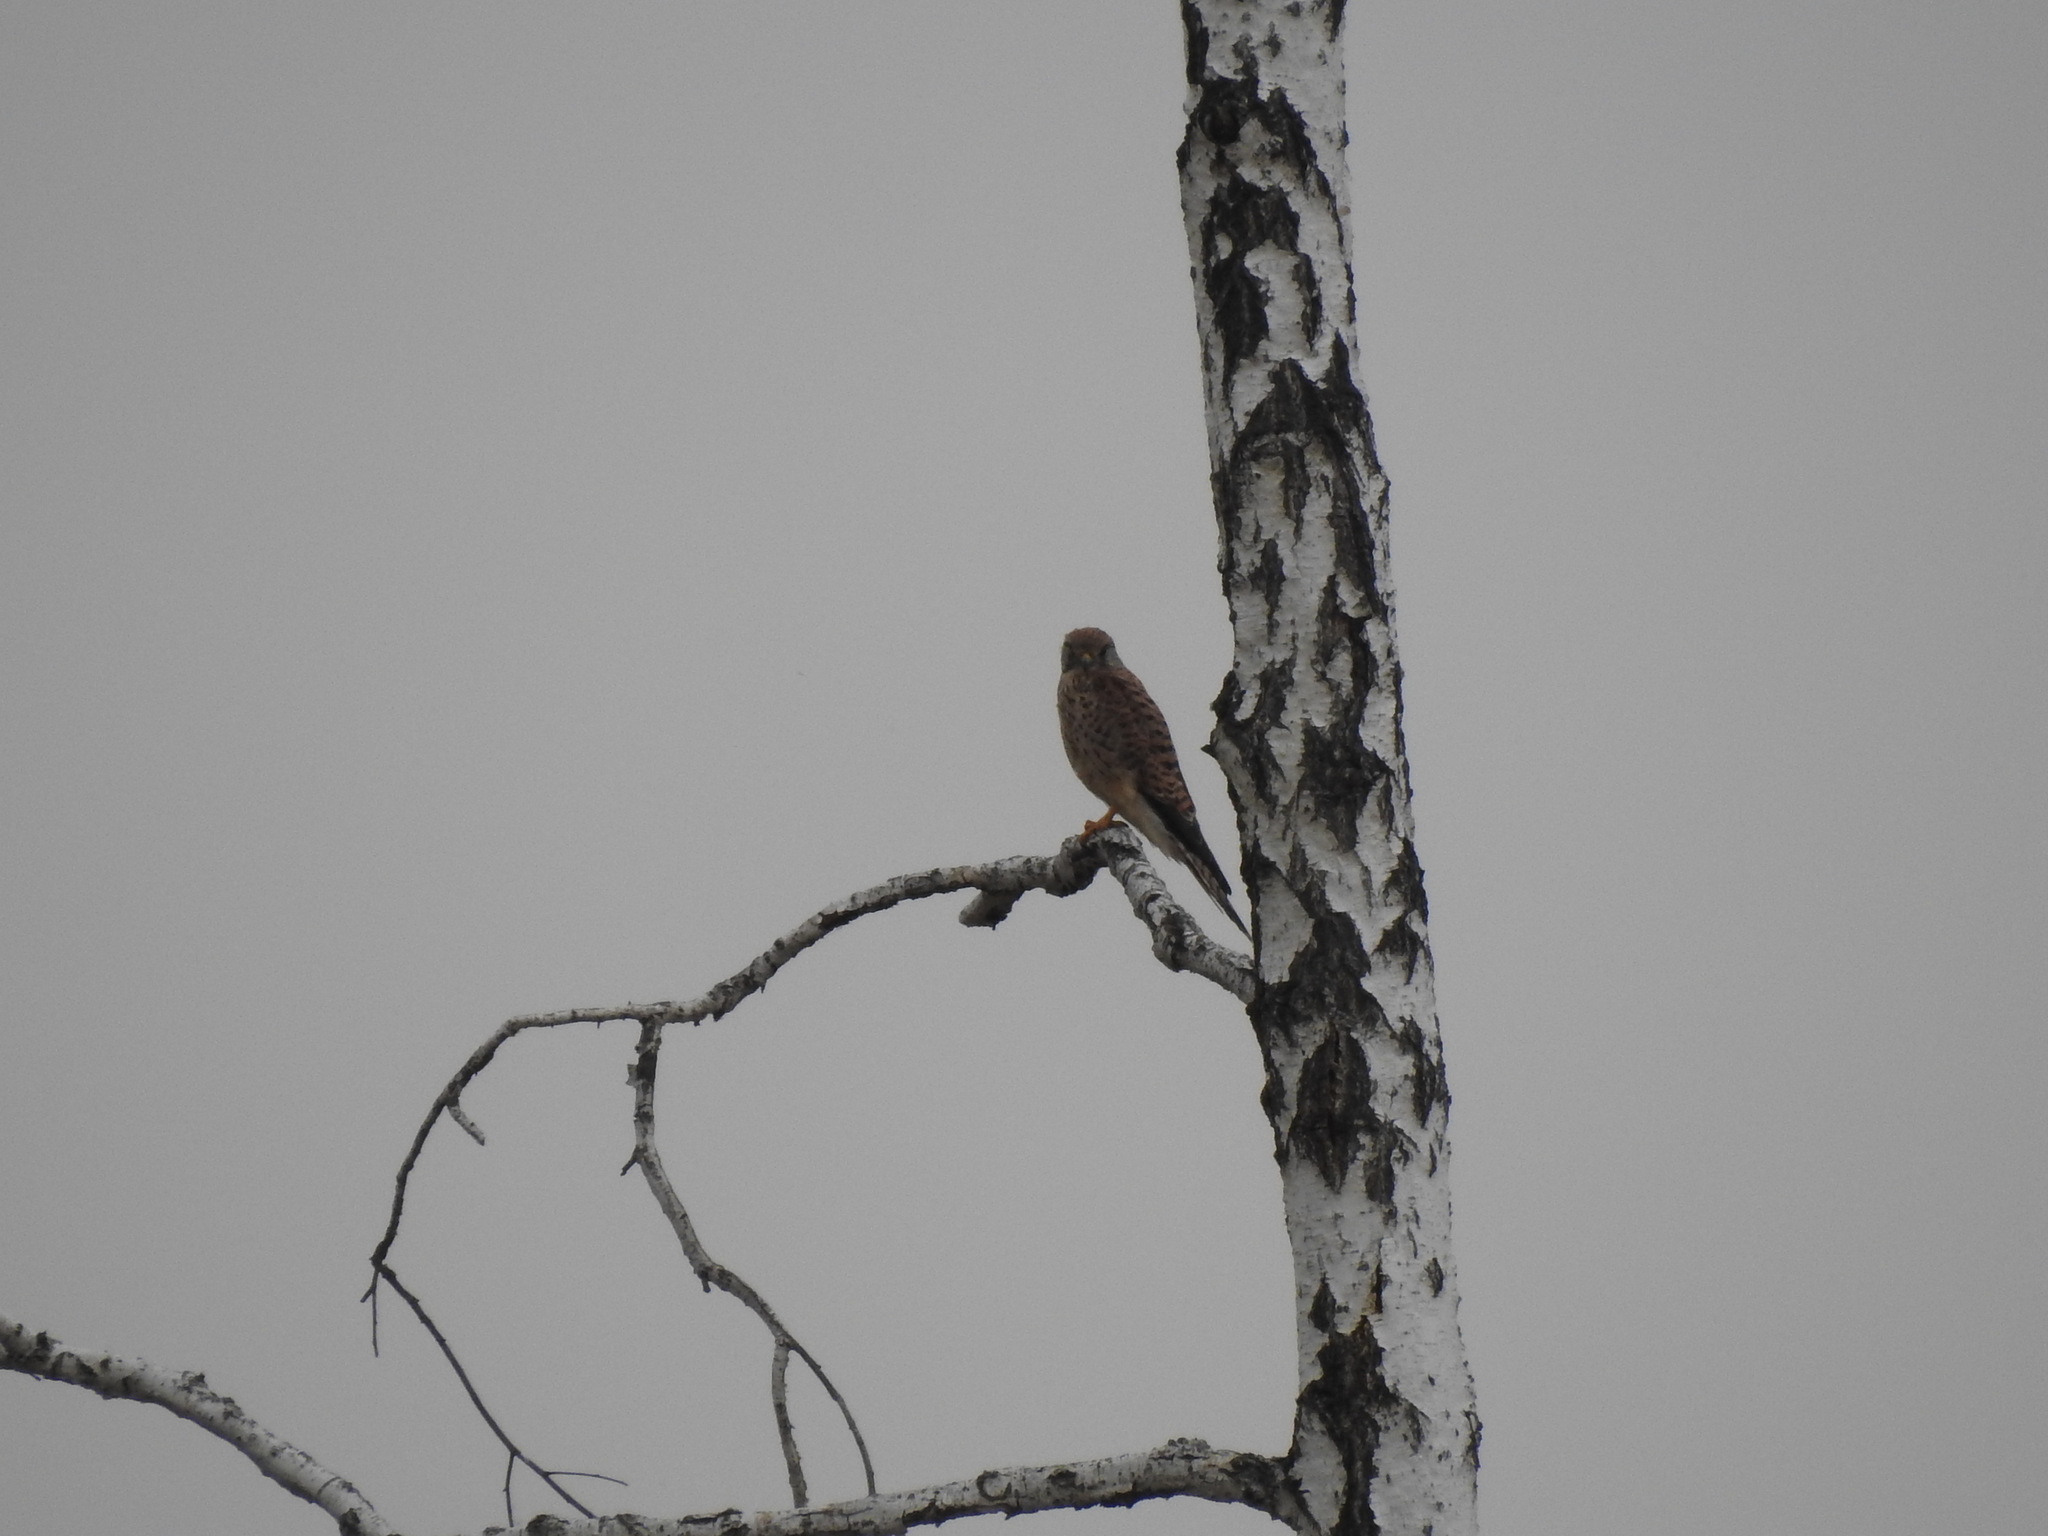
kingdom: Animalia
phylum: Chordata
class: Aves
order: Falconiformes
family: Falconidae
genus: Falco
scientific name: Falco tinnunculus
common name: Common kestrel
